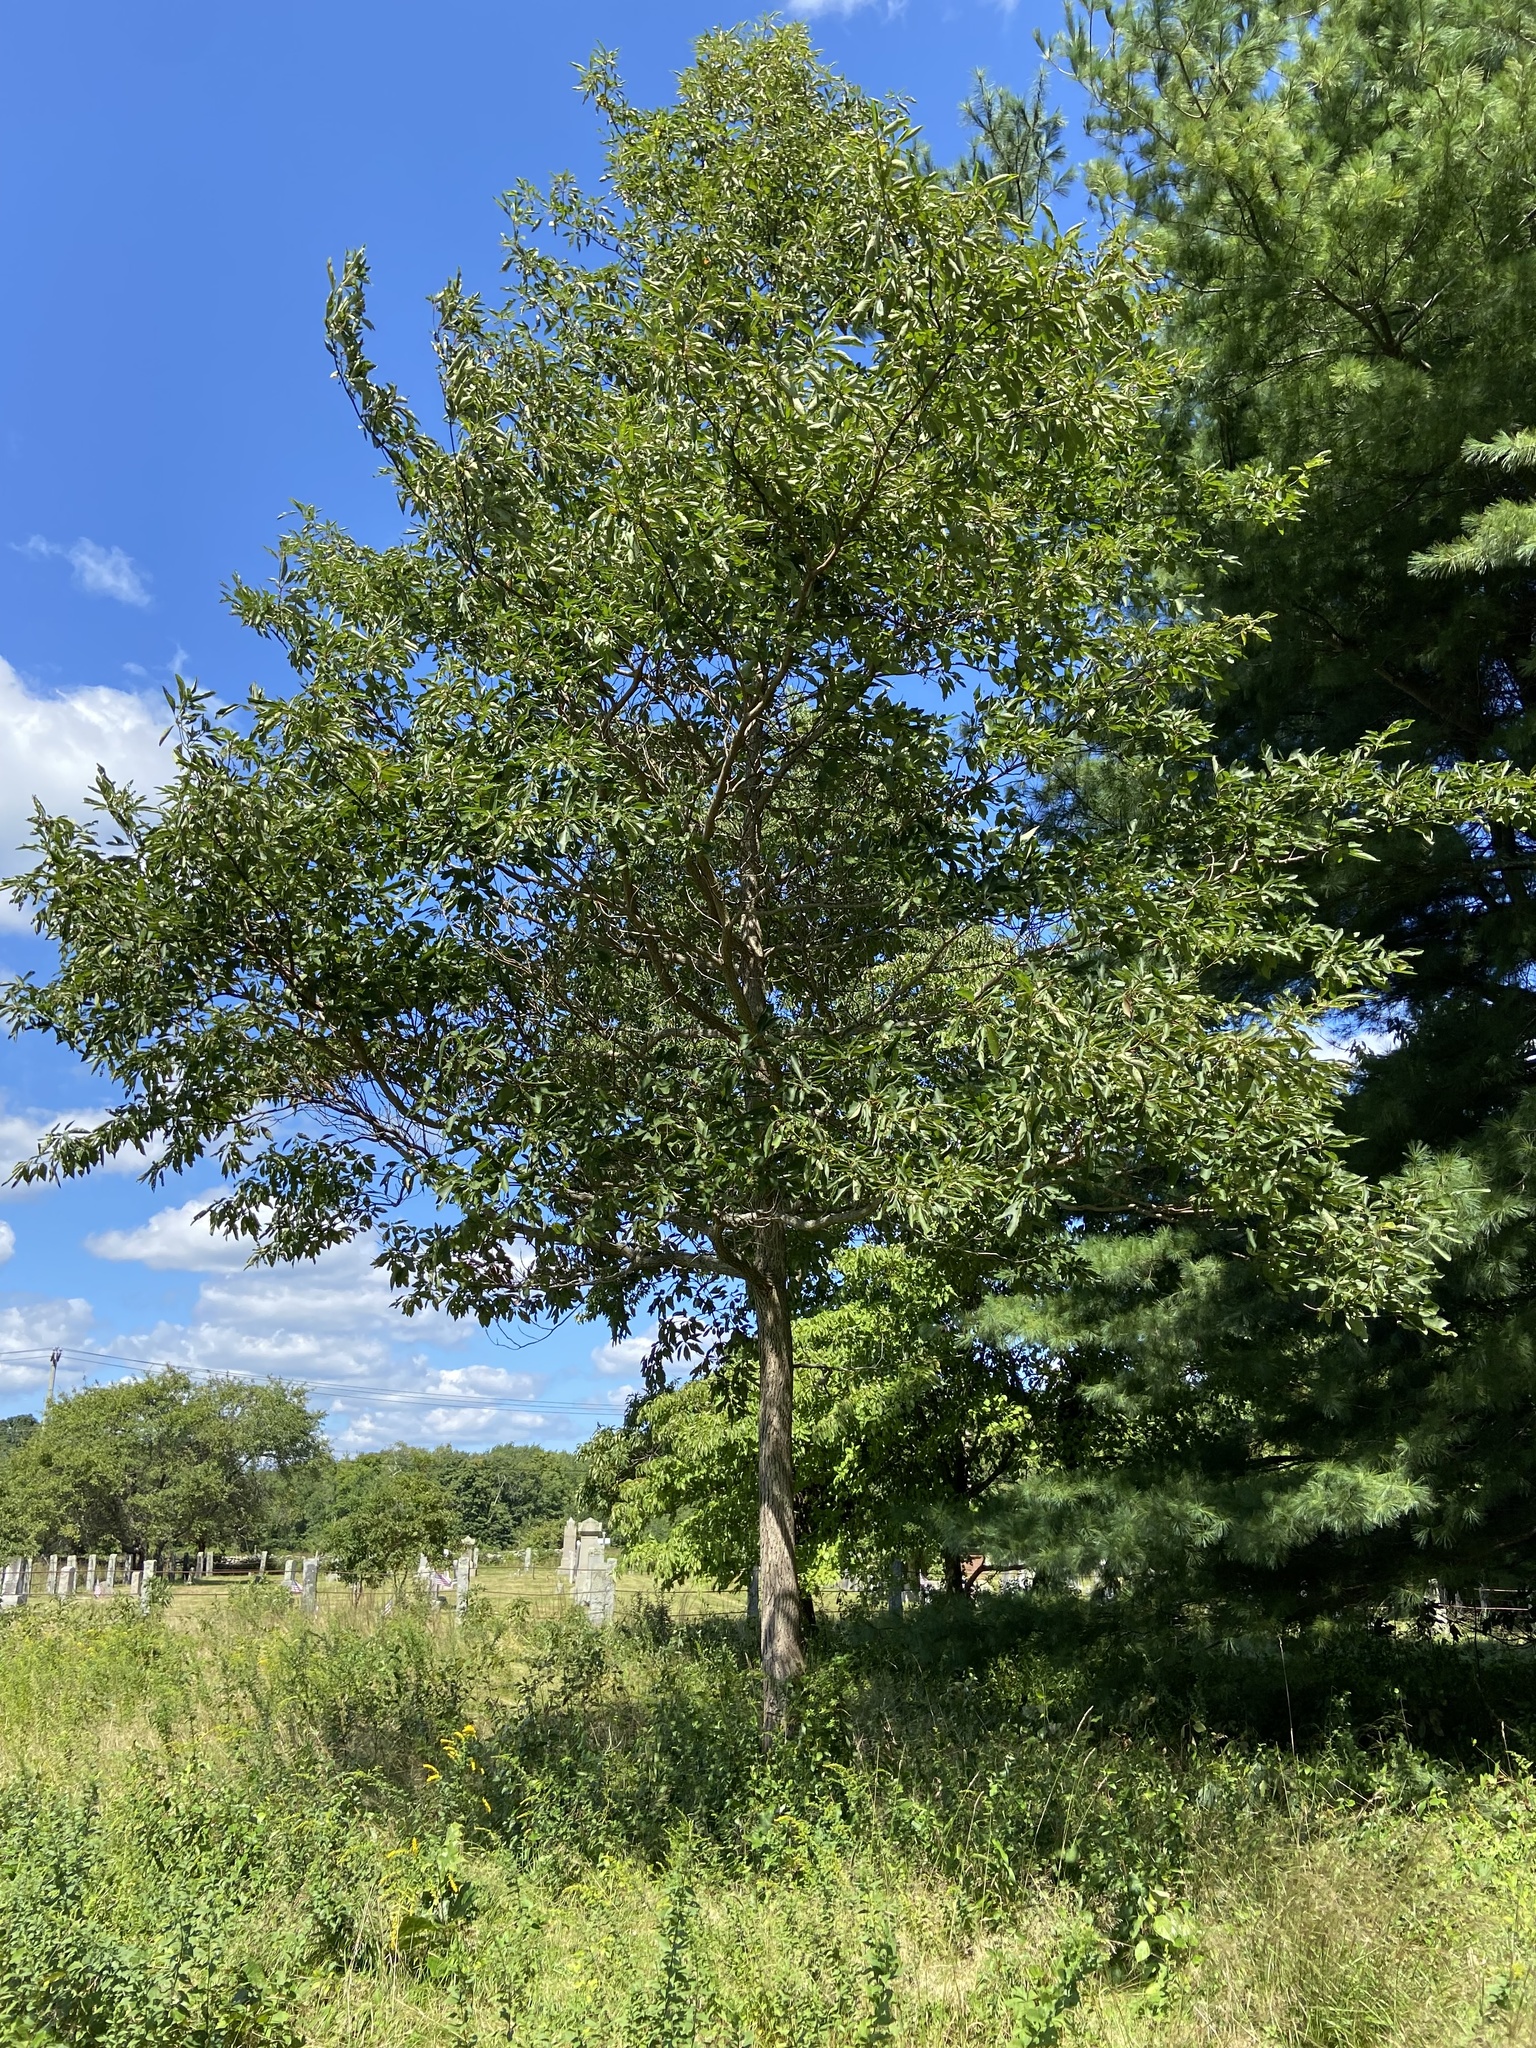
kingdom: Plantae
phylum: Tracheophyta
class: Magnoliopsida
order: Laurales
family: Lauraceae
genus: Sassafras
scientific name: Sassafras albidum
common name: Sassafras
